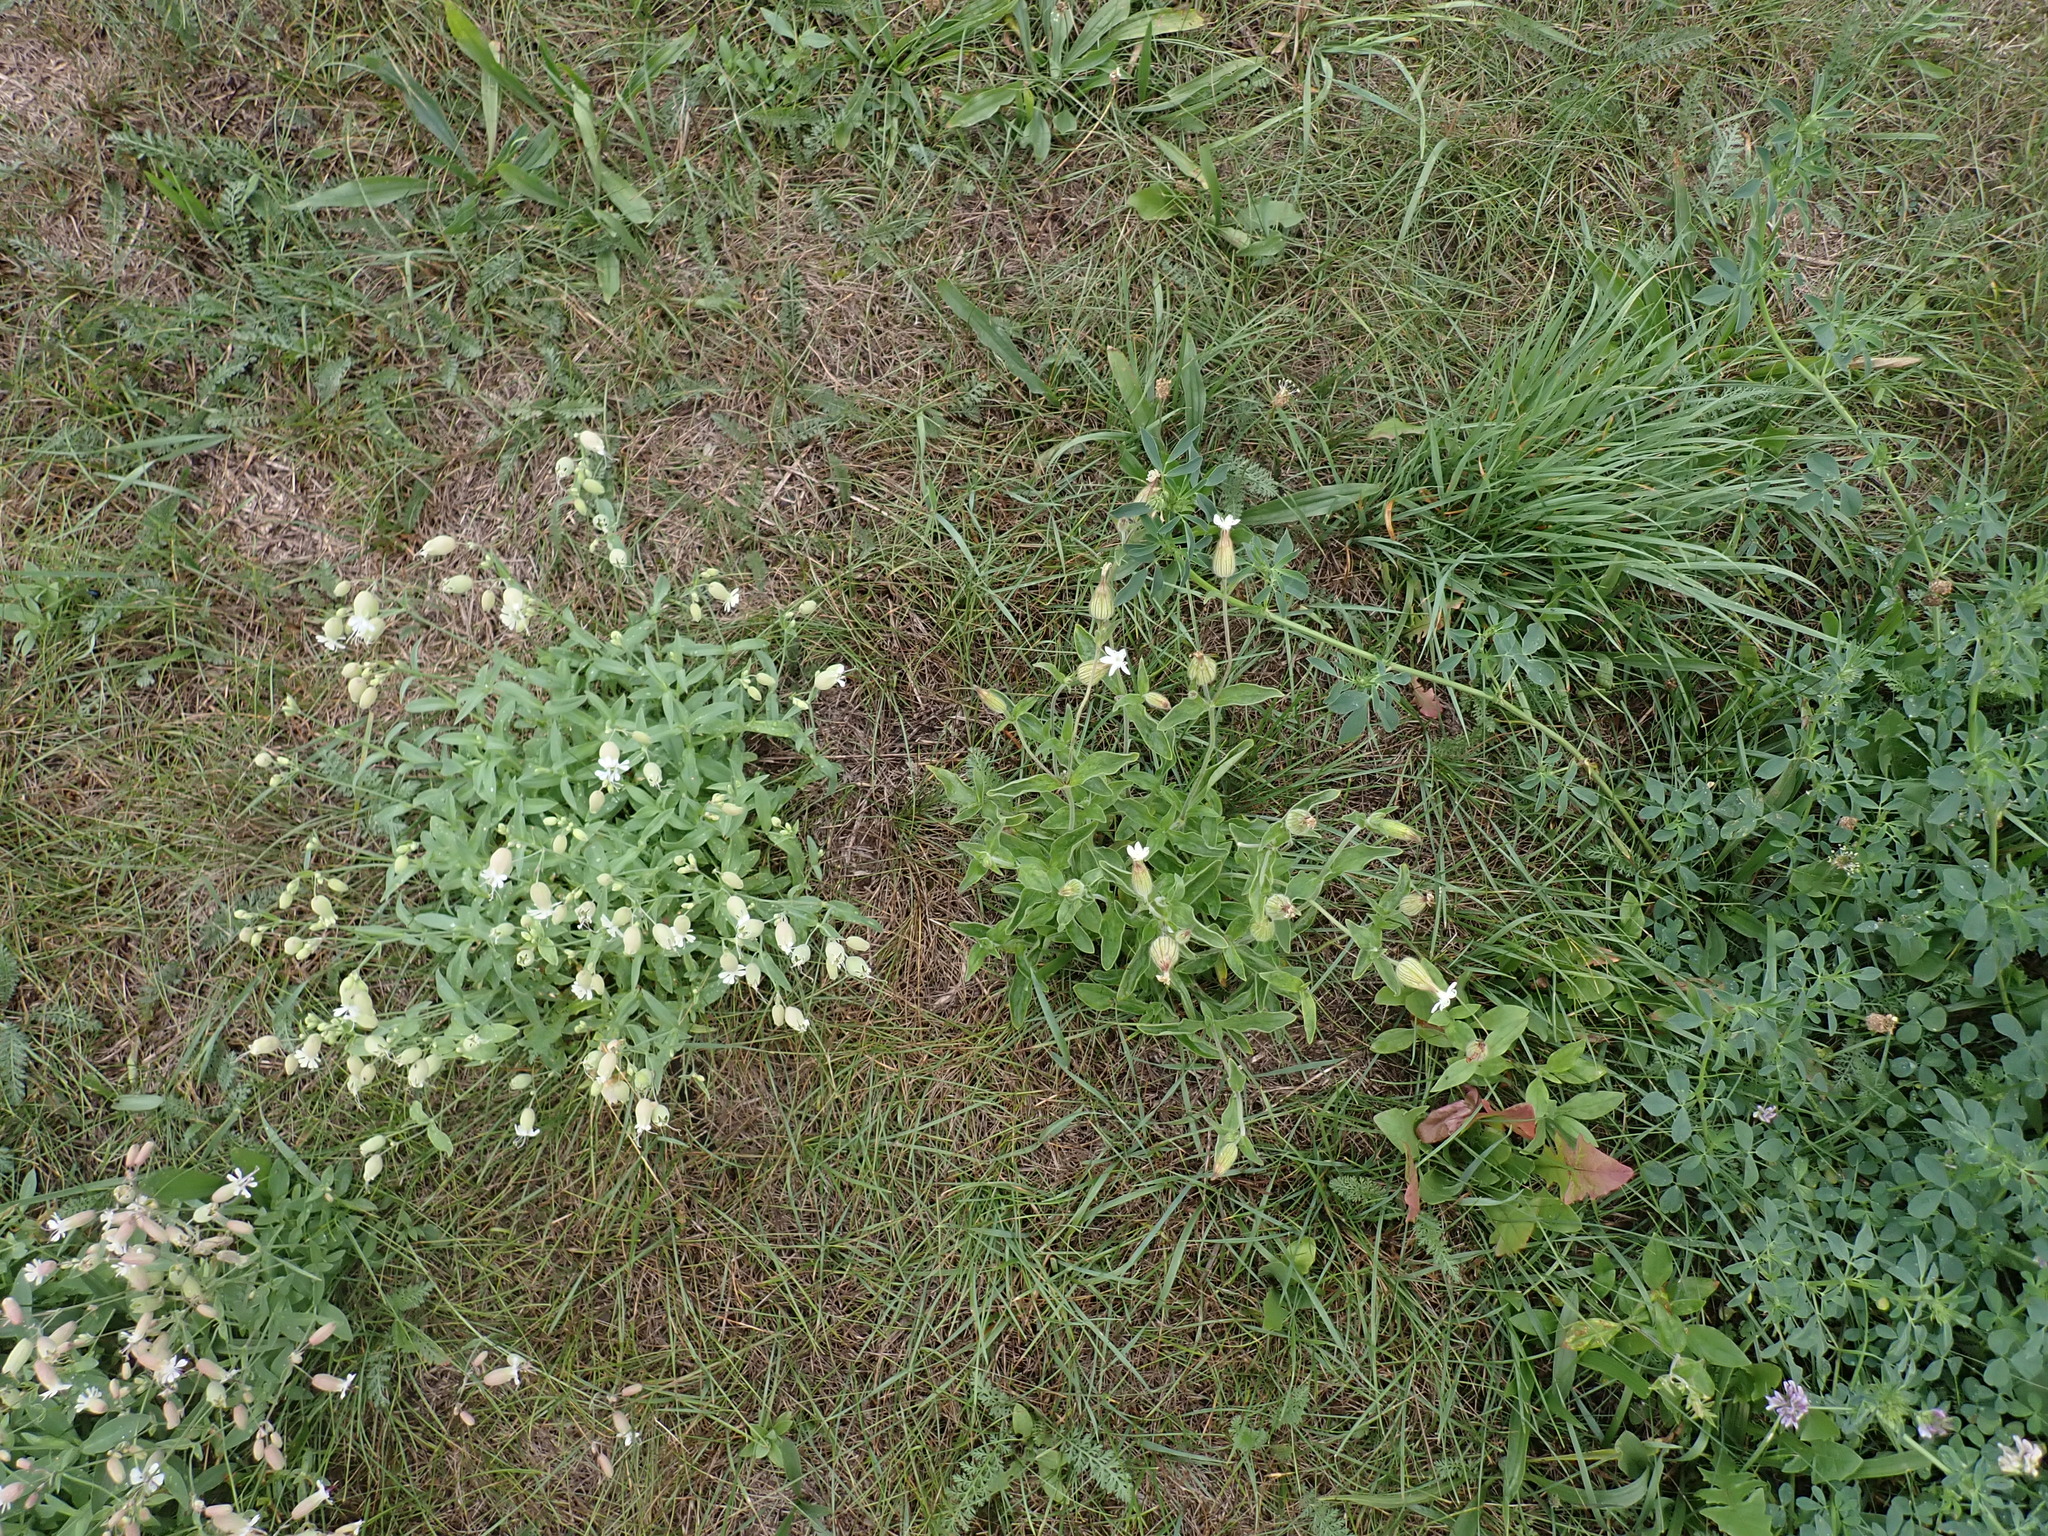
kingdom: Plantae
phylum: Tracheophyta
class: Magnoliopsida
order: Caryophyllales
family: Caryophyllaceae
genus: Silene
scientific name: Silene vulgaris
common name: Bladder campion
